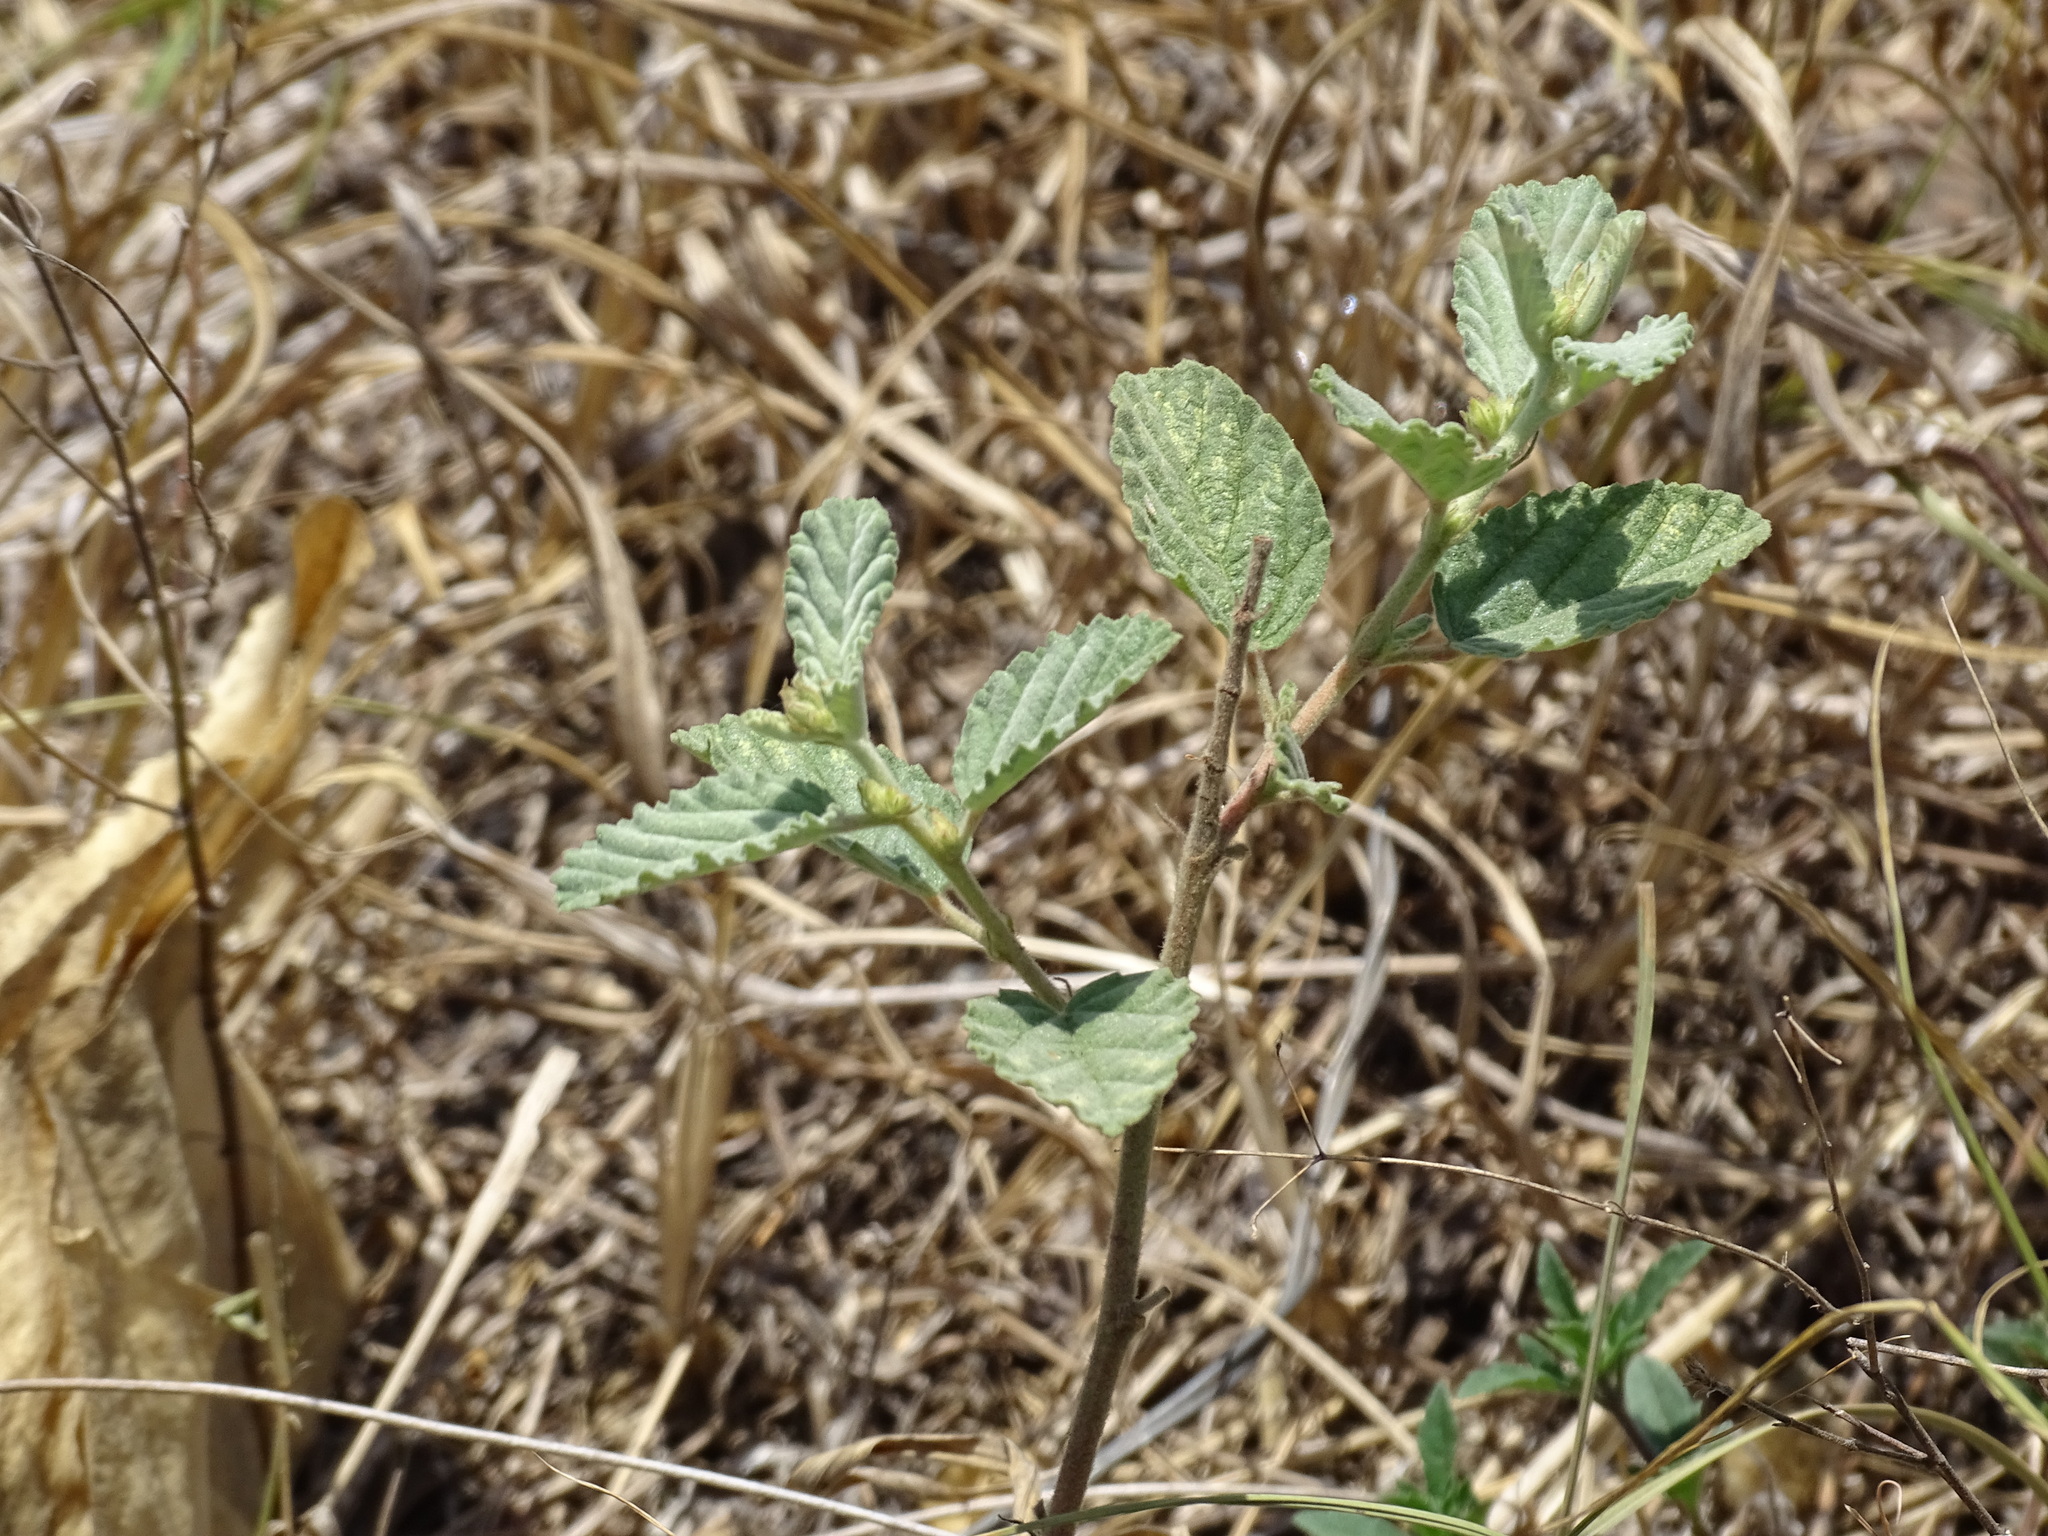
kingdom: Plantae
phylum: Tracheophyta
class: Magnoliopsida
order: Malvales
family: Malvaceae
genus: Waltheria
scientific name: Waltheria indica
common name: Leather-coat
